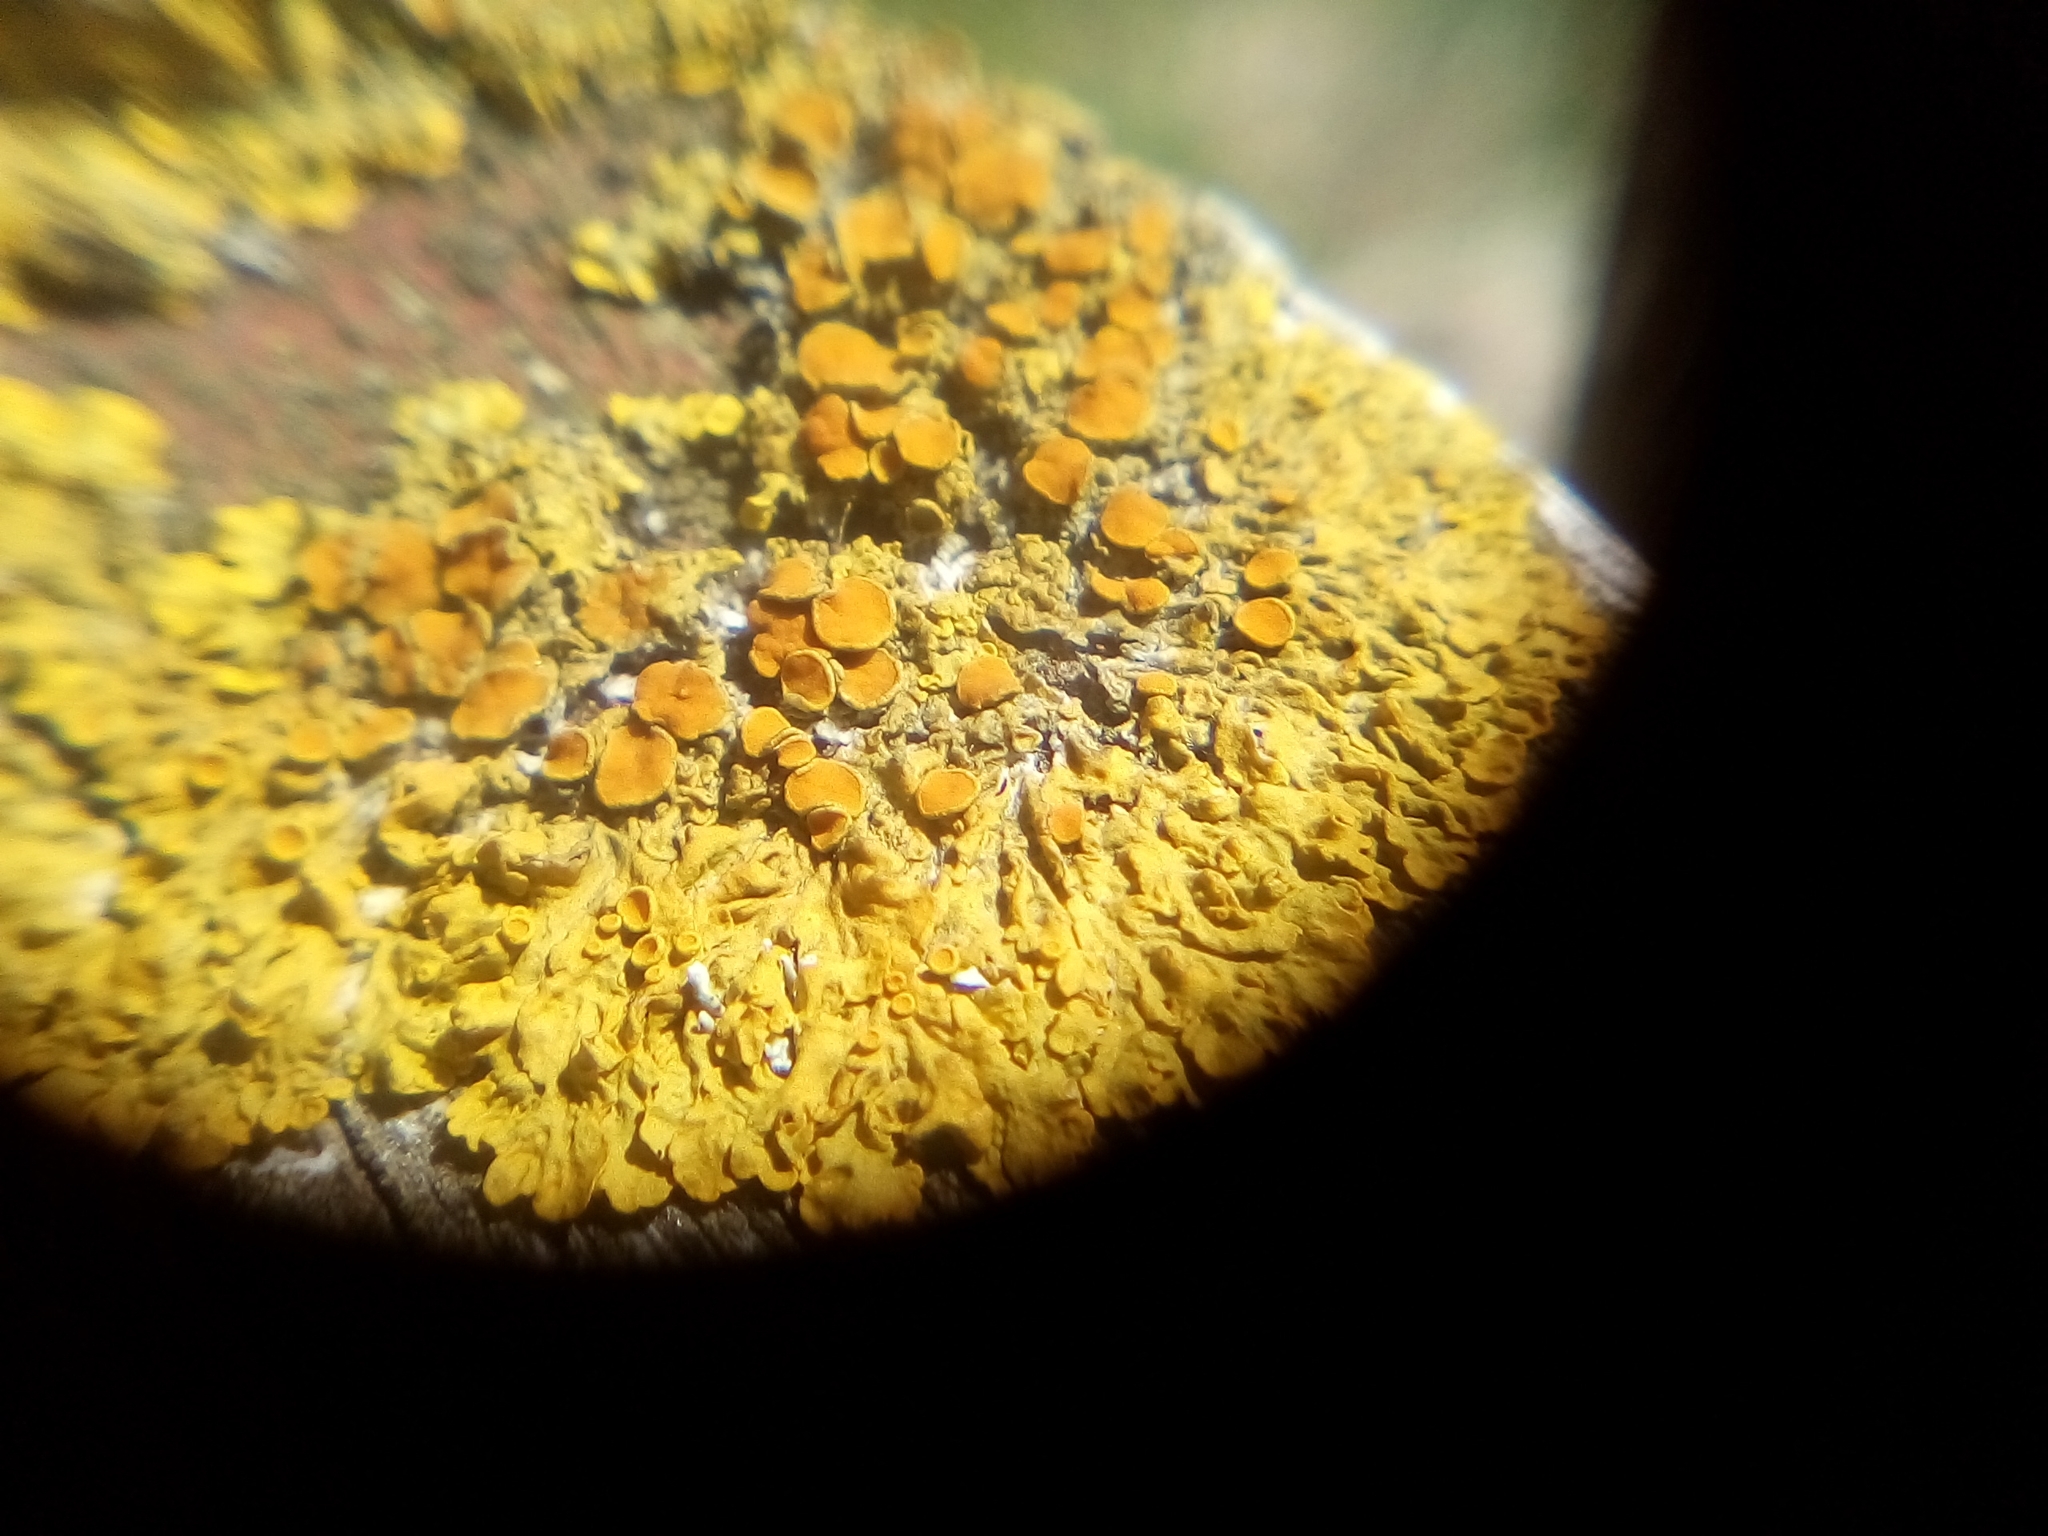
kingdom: Fungi
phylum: Ascomycota
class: Lecanoromycetes
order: Teloschistales
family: Teloschistaceae
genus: Xanthoria
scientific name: Xanthoria parietina
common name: Common orange lichen
